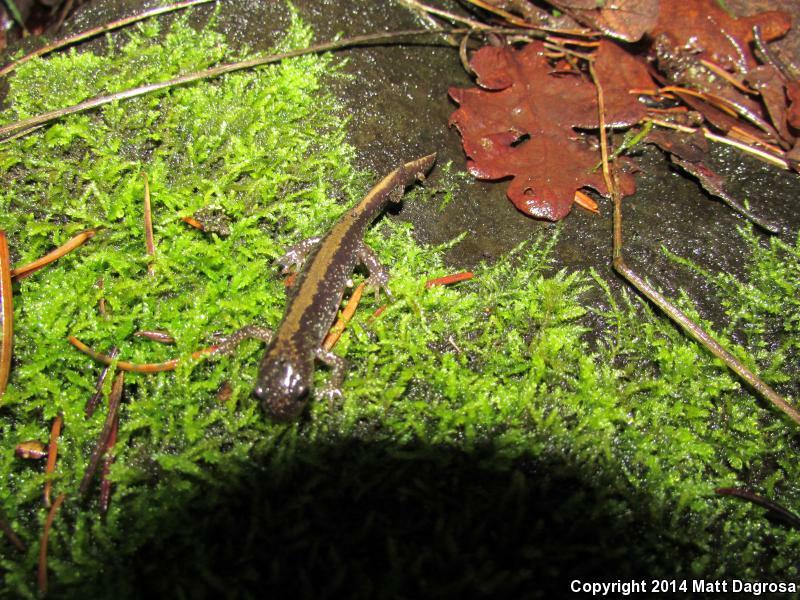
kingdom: Animalia
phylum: Chordata
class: Amphibia
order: Caudata
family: Ambystomatidae
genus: Ambystoma
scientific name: Ambystoma macrodactylum
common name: Long-toed salamander
